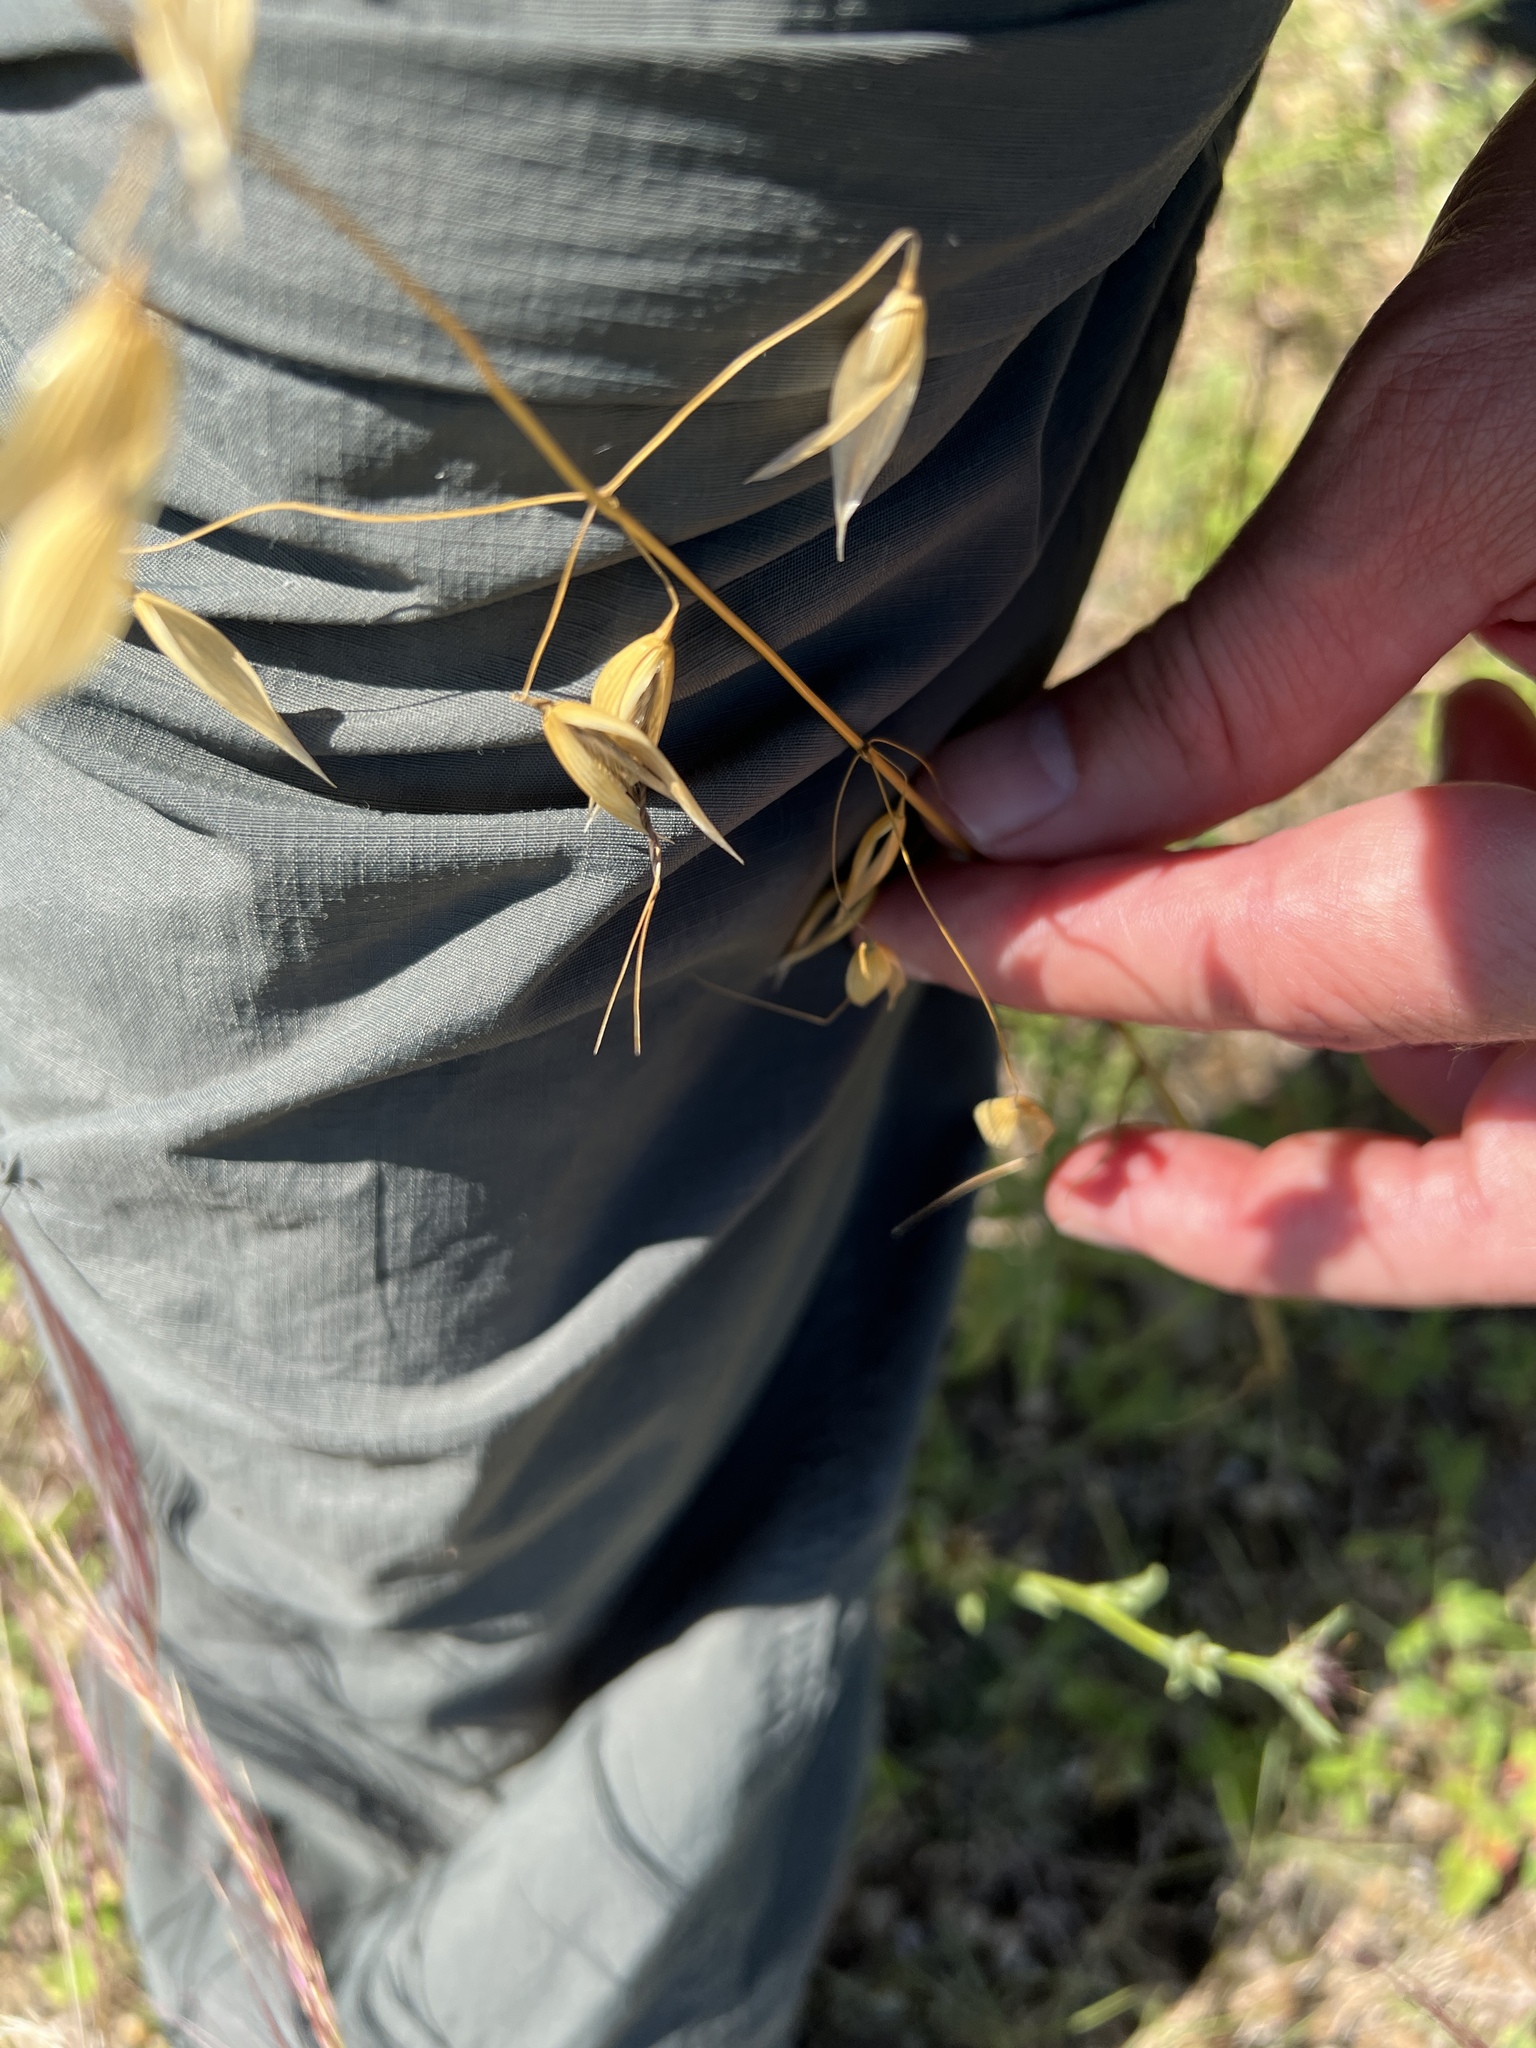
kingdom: Plantae
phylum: Tracheophyta
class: Liliopsida
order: Poales
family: Poaceae
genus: Avena
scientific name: Avena fatua
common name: Wild oat
